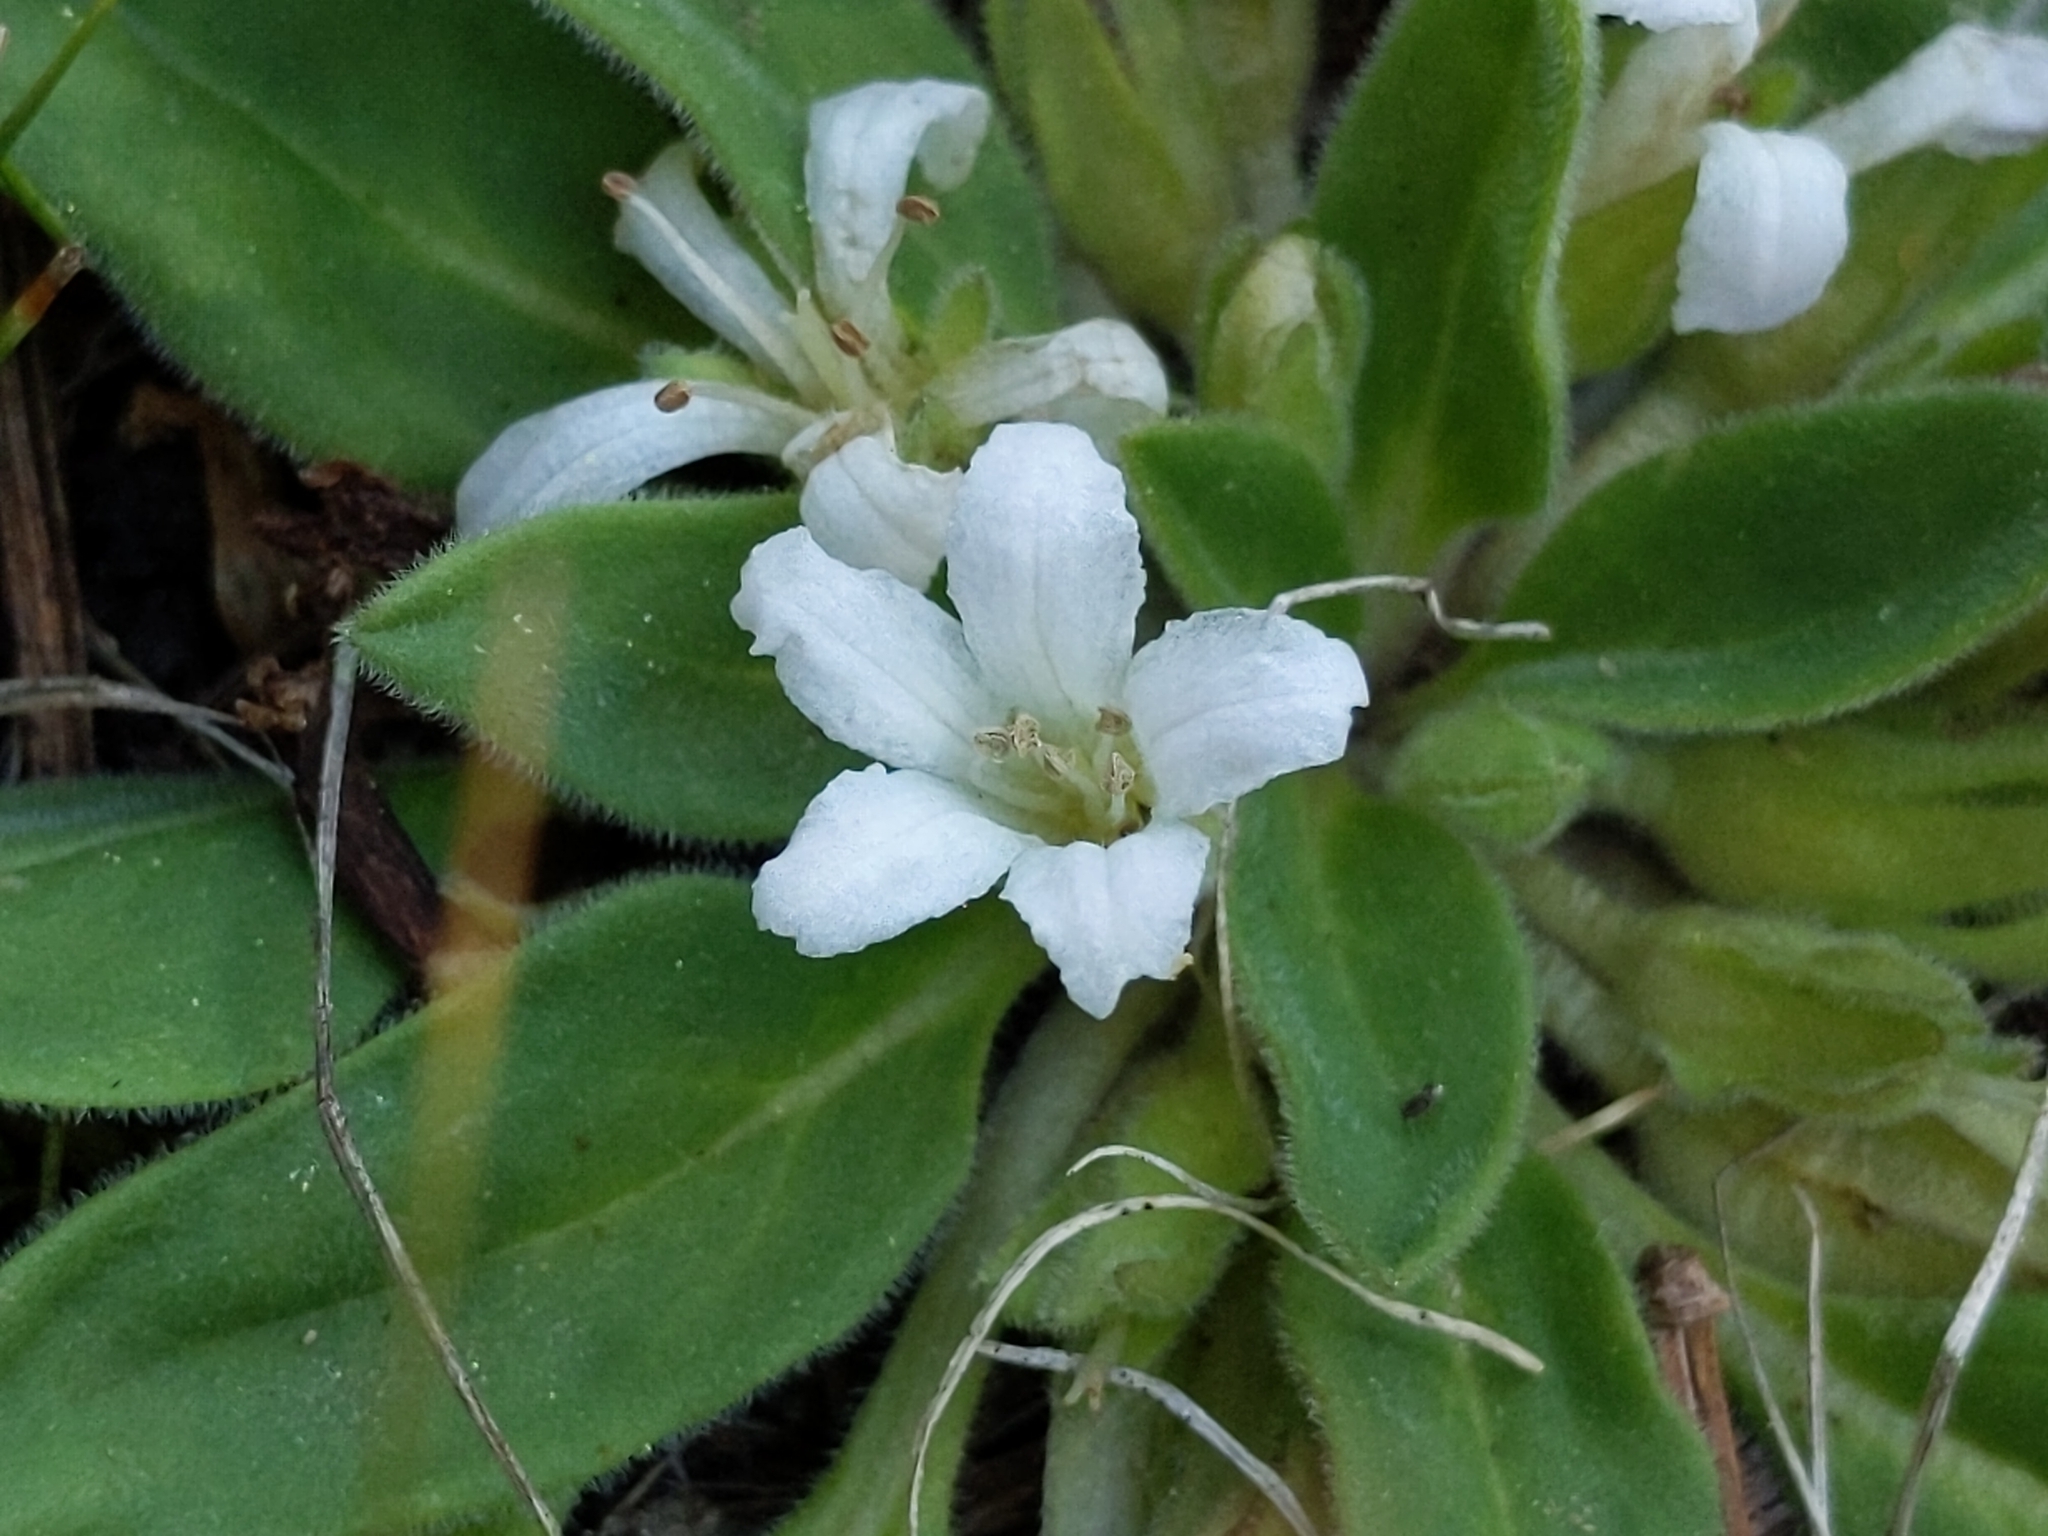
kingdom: Plantae
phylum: Tracheophyta
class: Magnoliopsida
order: Boraginales
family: Hydrophyllaceae
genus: Hesperochiron
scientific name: Hesperochiron californicus
